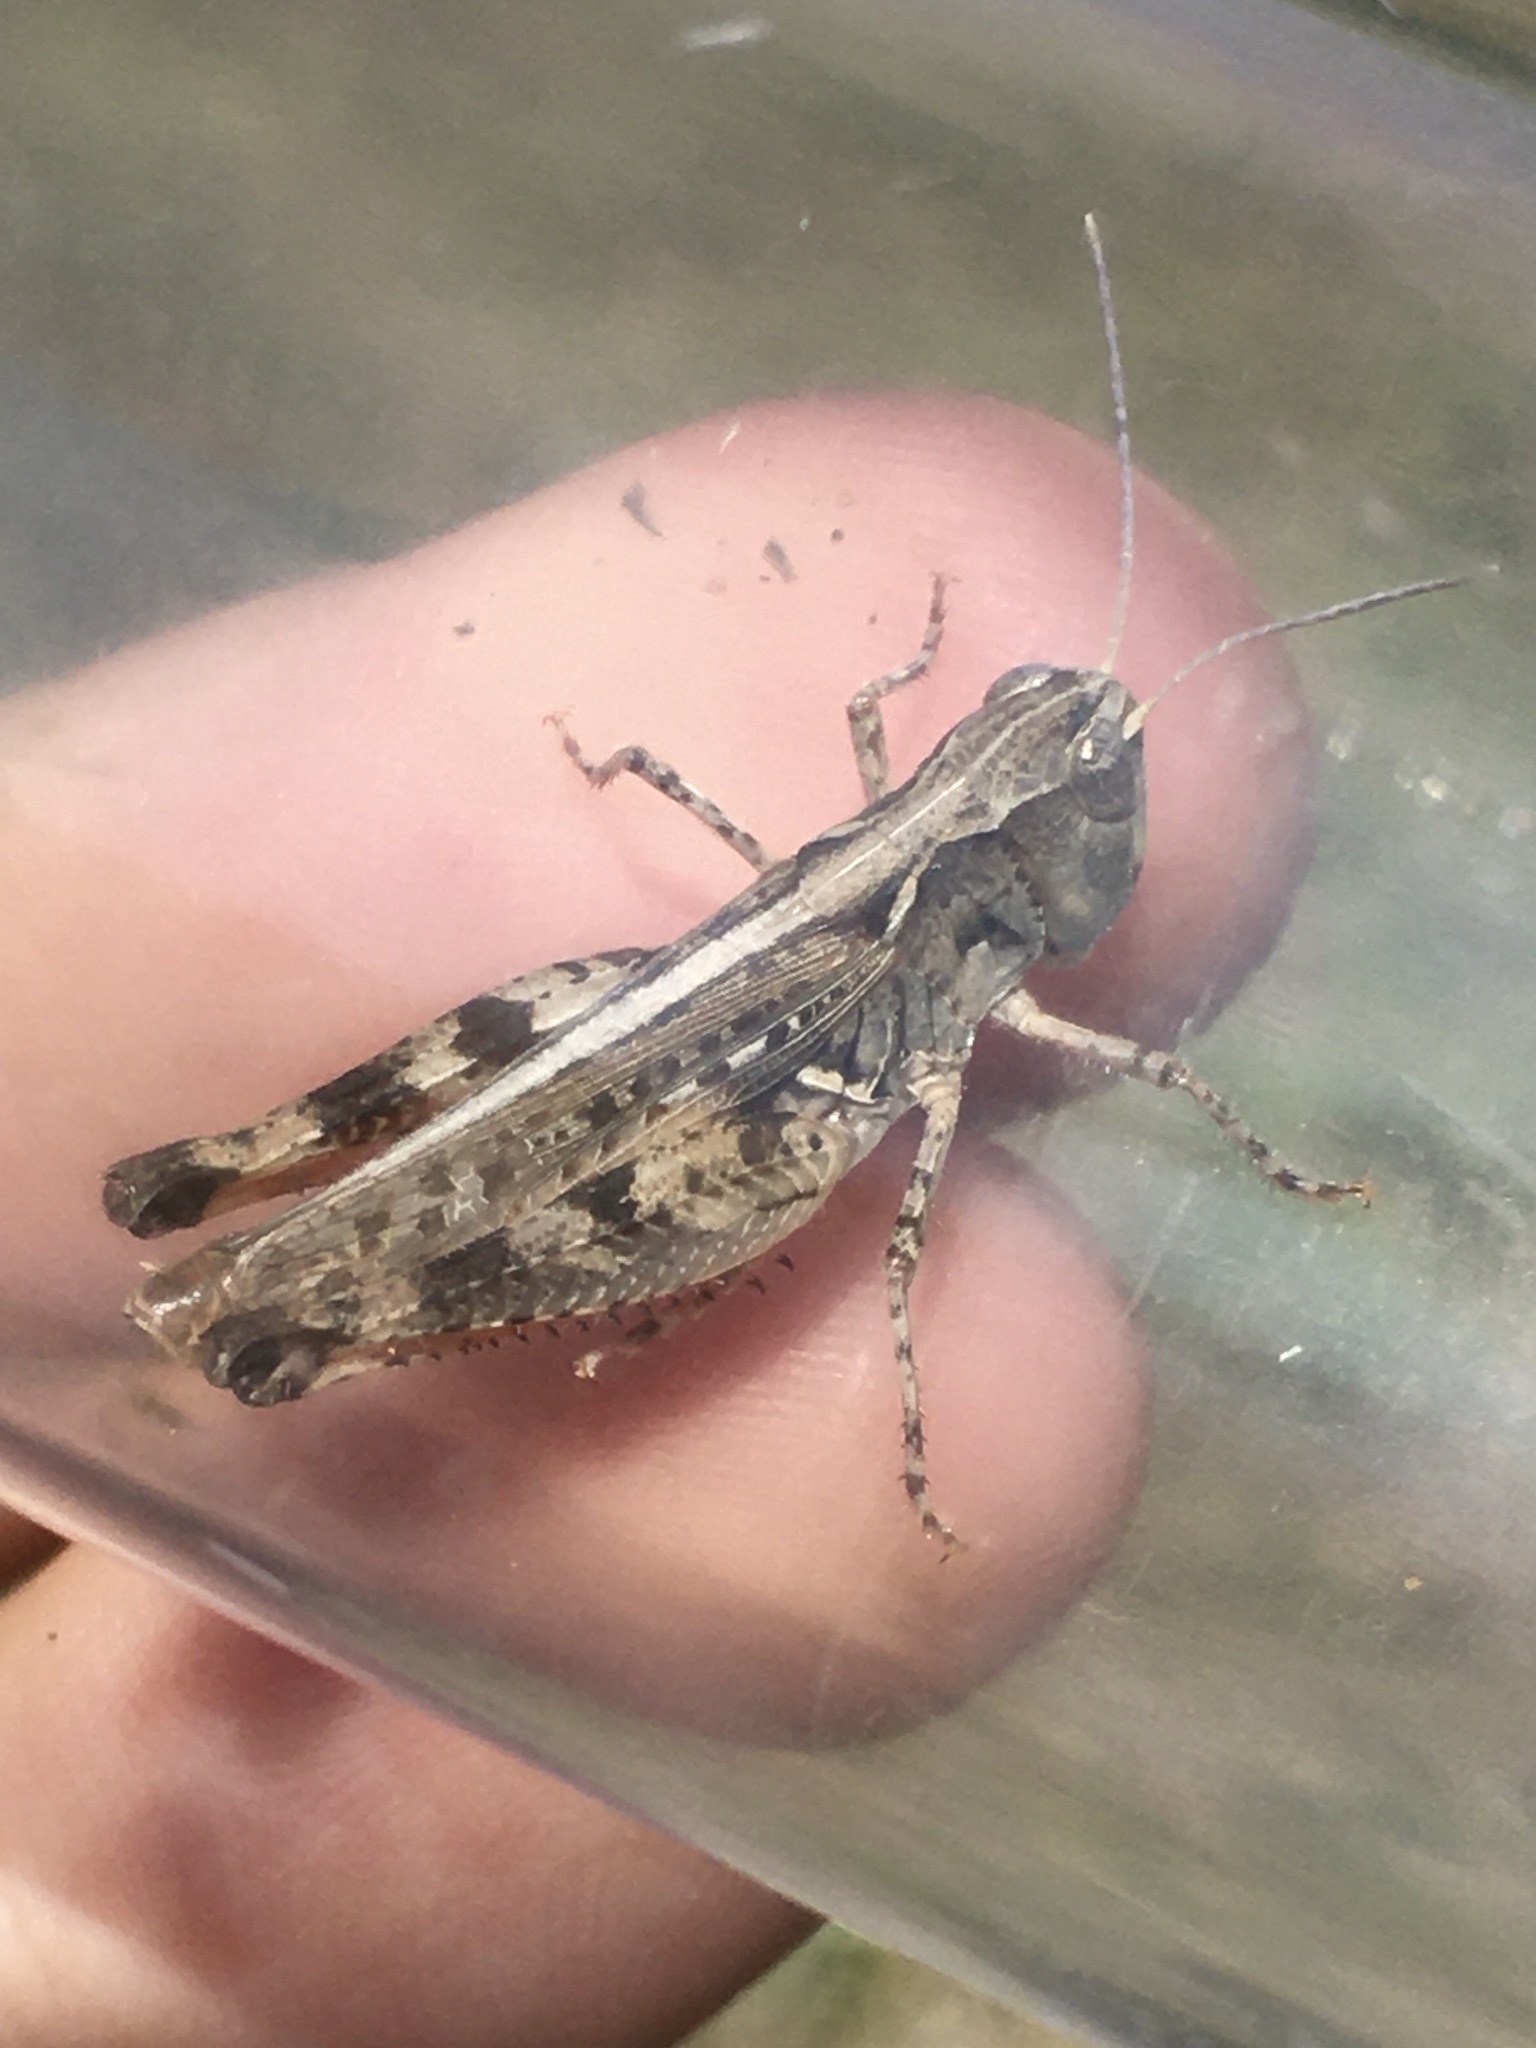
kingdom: Animalia
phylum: Arthropoda
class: Insecta
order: Orthoptera
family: Acrididae
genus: Ageneotettix
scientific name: Ageneotettix deorum
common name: White-whiskered grasshopper
